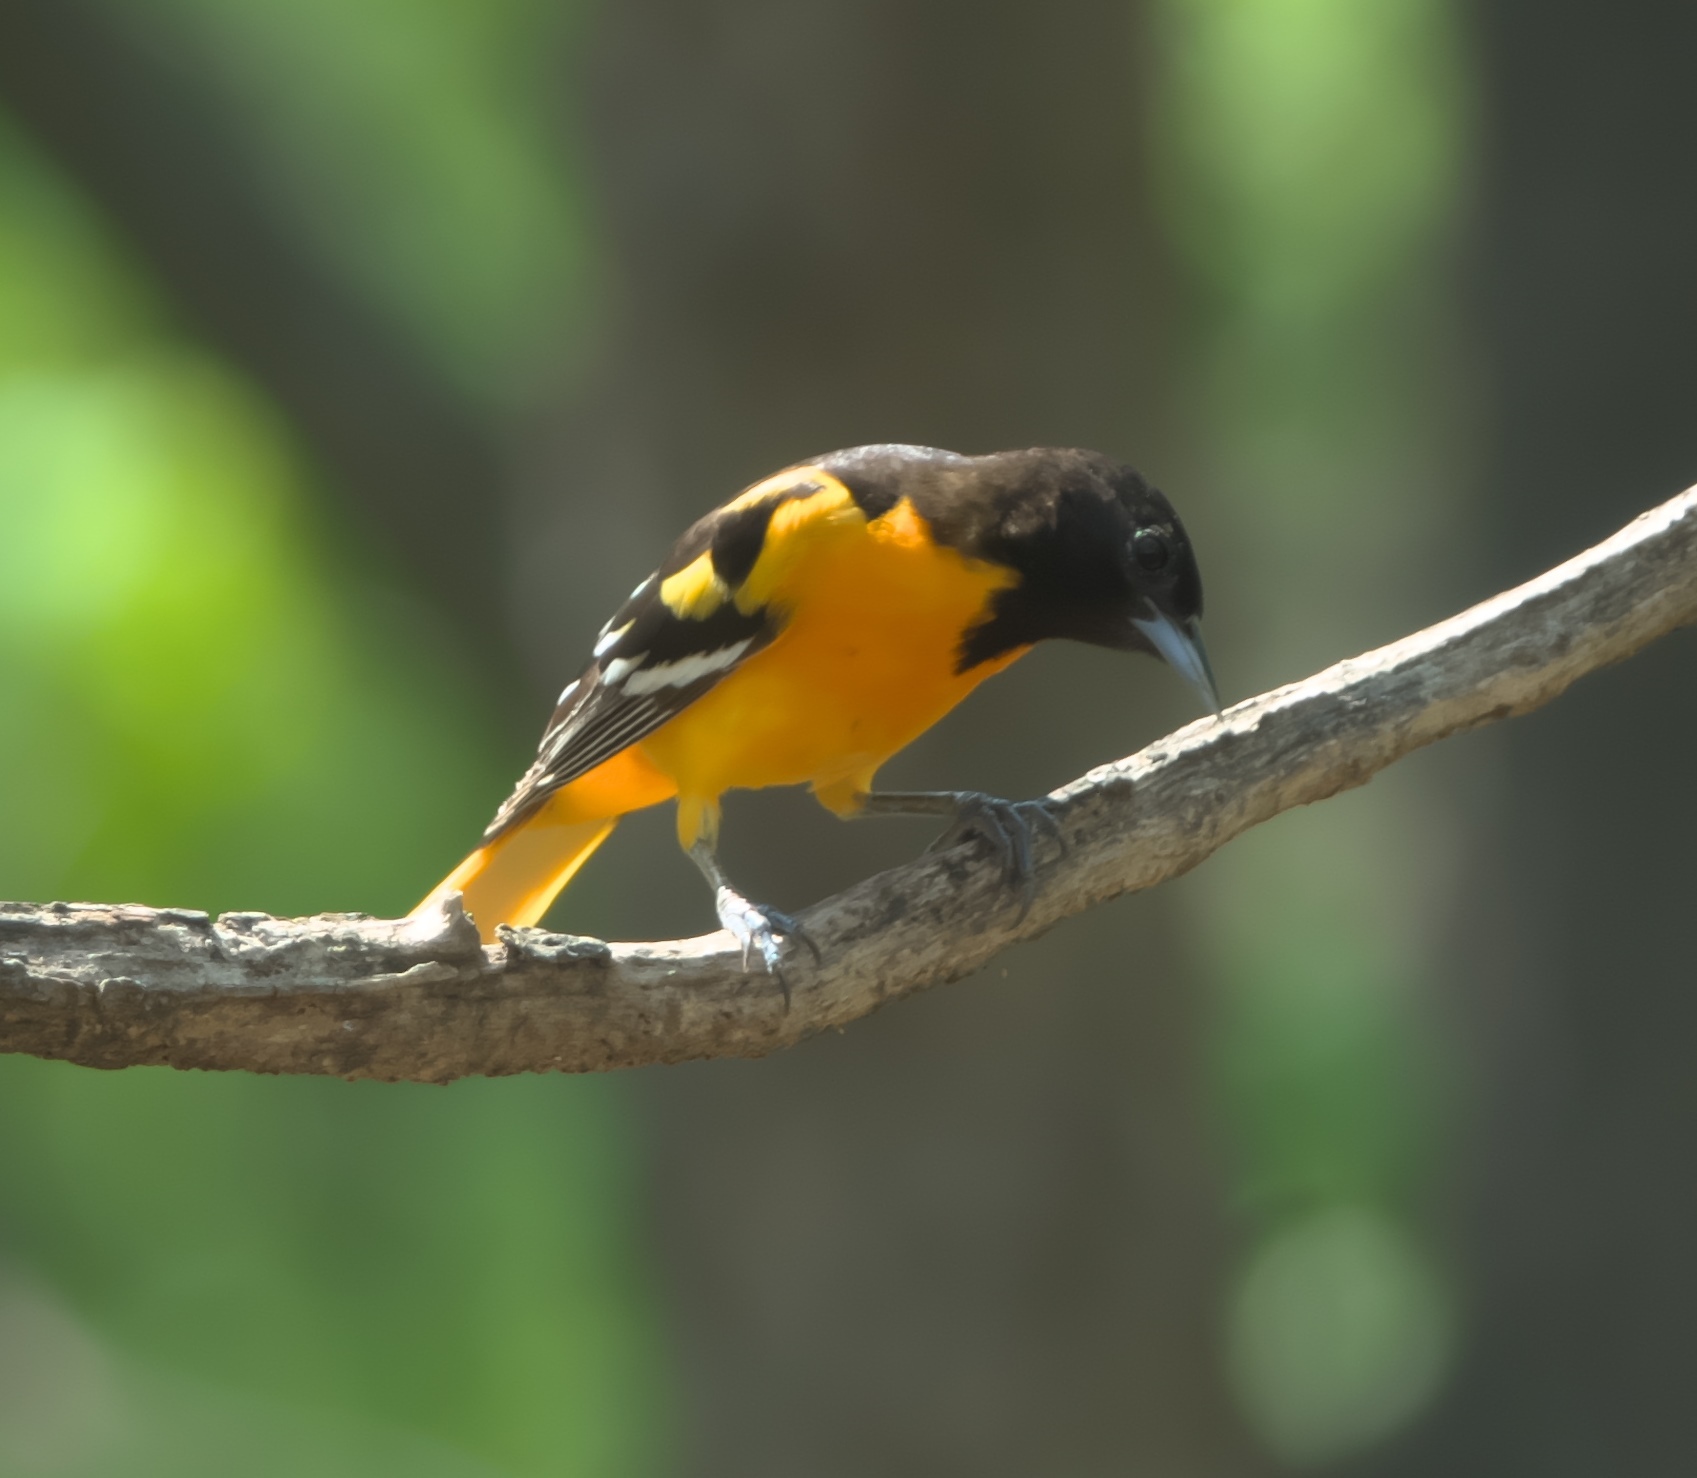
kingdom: Animalia
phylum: Chordata
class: Aves
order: Passeriformes
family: Icteridae
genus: Icterus
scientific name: Icterus galbula
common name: Baltimore oriole
